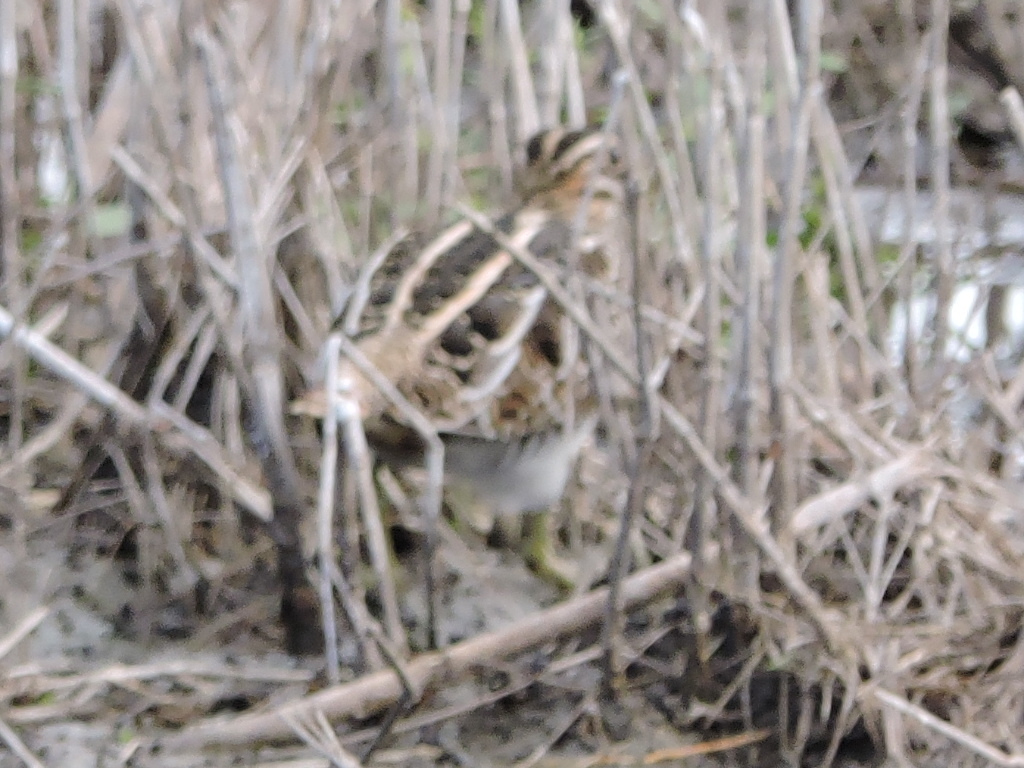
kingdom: Animalia
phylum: Chordata
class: Aves
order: Charadriiformes
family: Scolopacidae
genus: Gallinago
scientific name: Gallinago delicata
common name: Wilson's snipe
